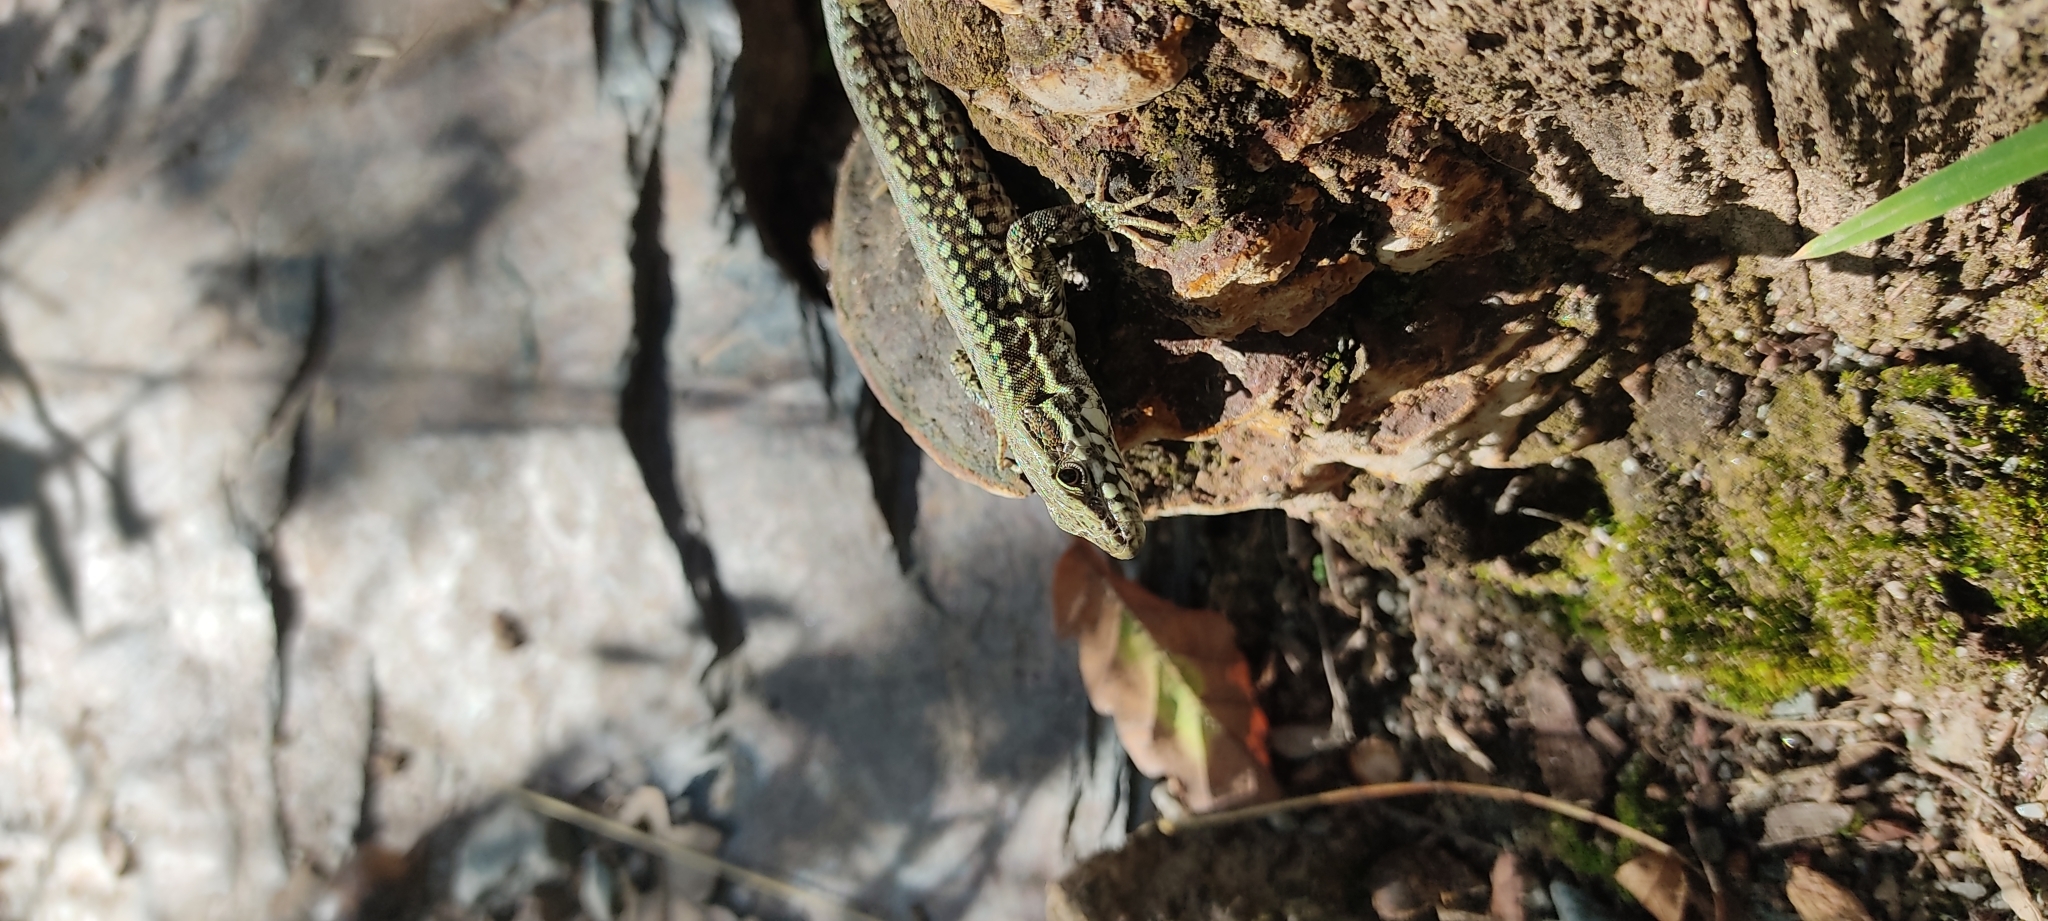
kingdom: Animalia
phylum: Chordata
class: Squamata
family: Lacertidae
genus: Podarcis
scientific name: Podarcis muralis
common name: Common wall lizard
